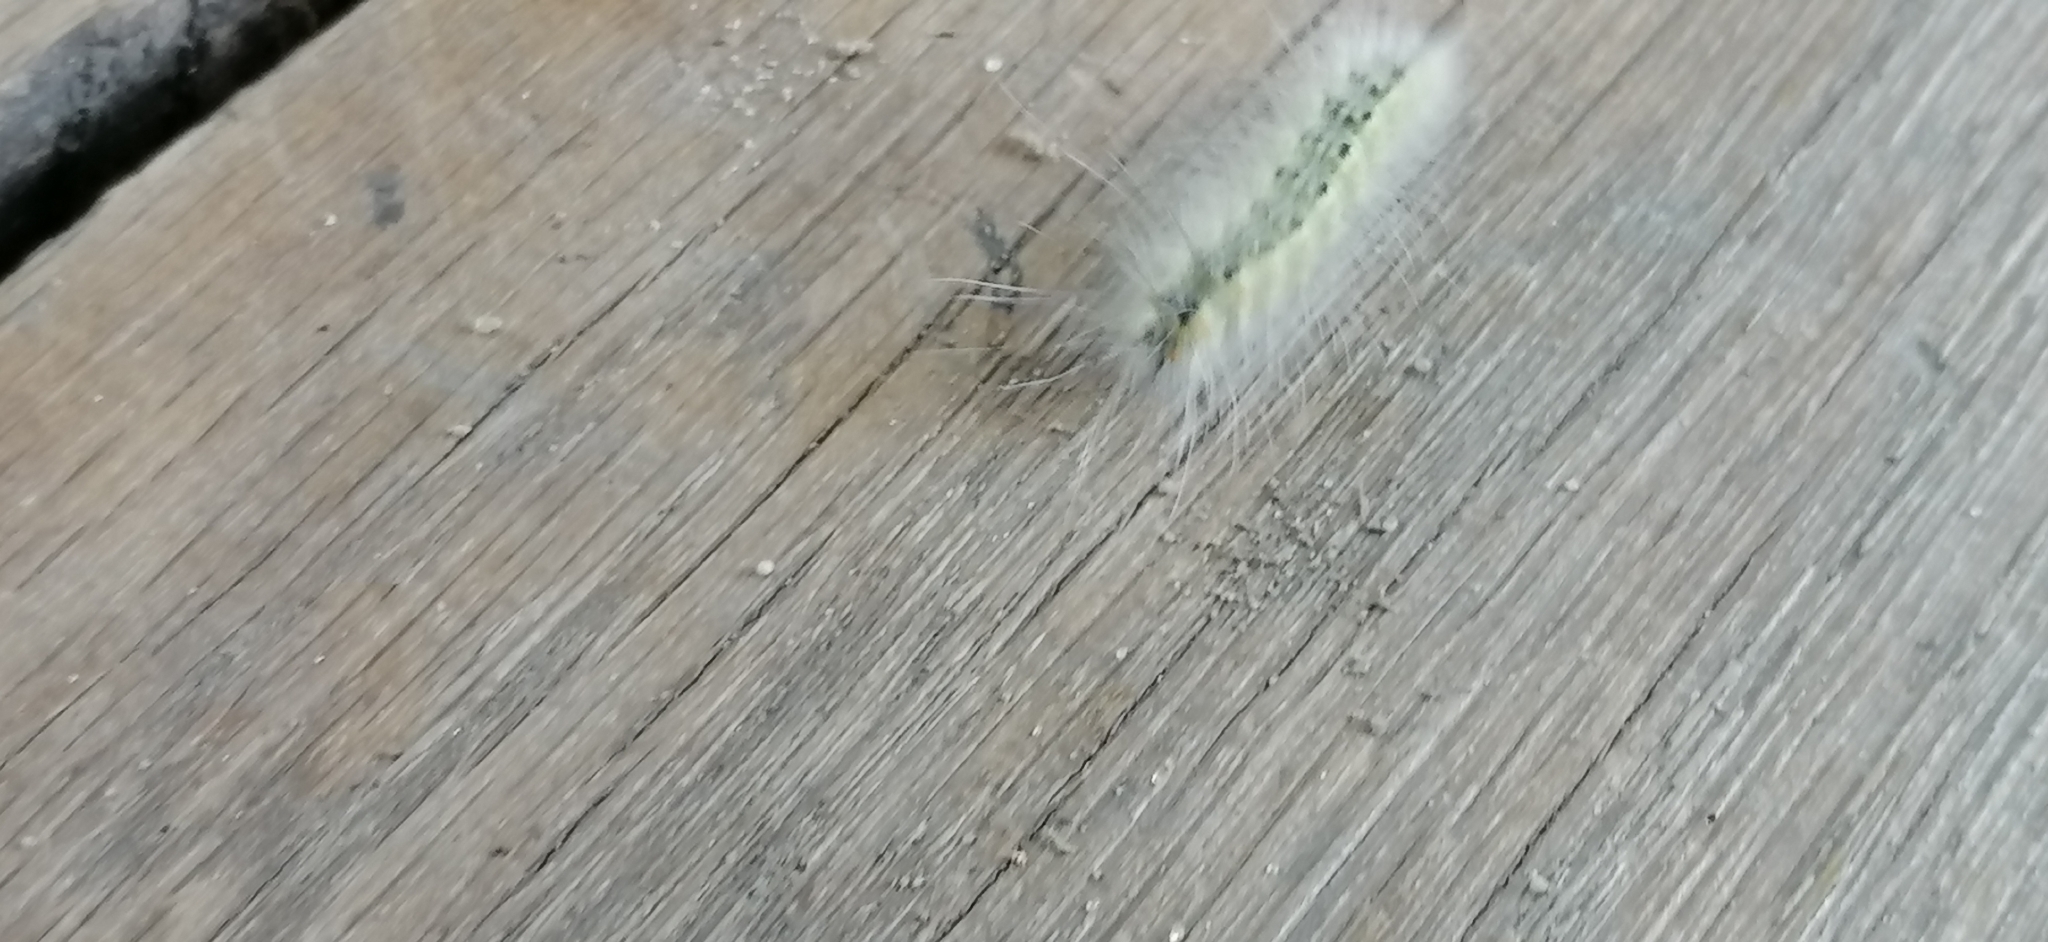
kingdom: Animalia
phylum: Arthropoda
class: Insecta
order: Lepidoptera
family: Erebidae
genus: Hyphantria
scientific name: Hyphantria cunea
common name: American white moth
